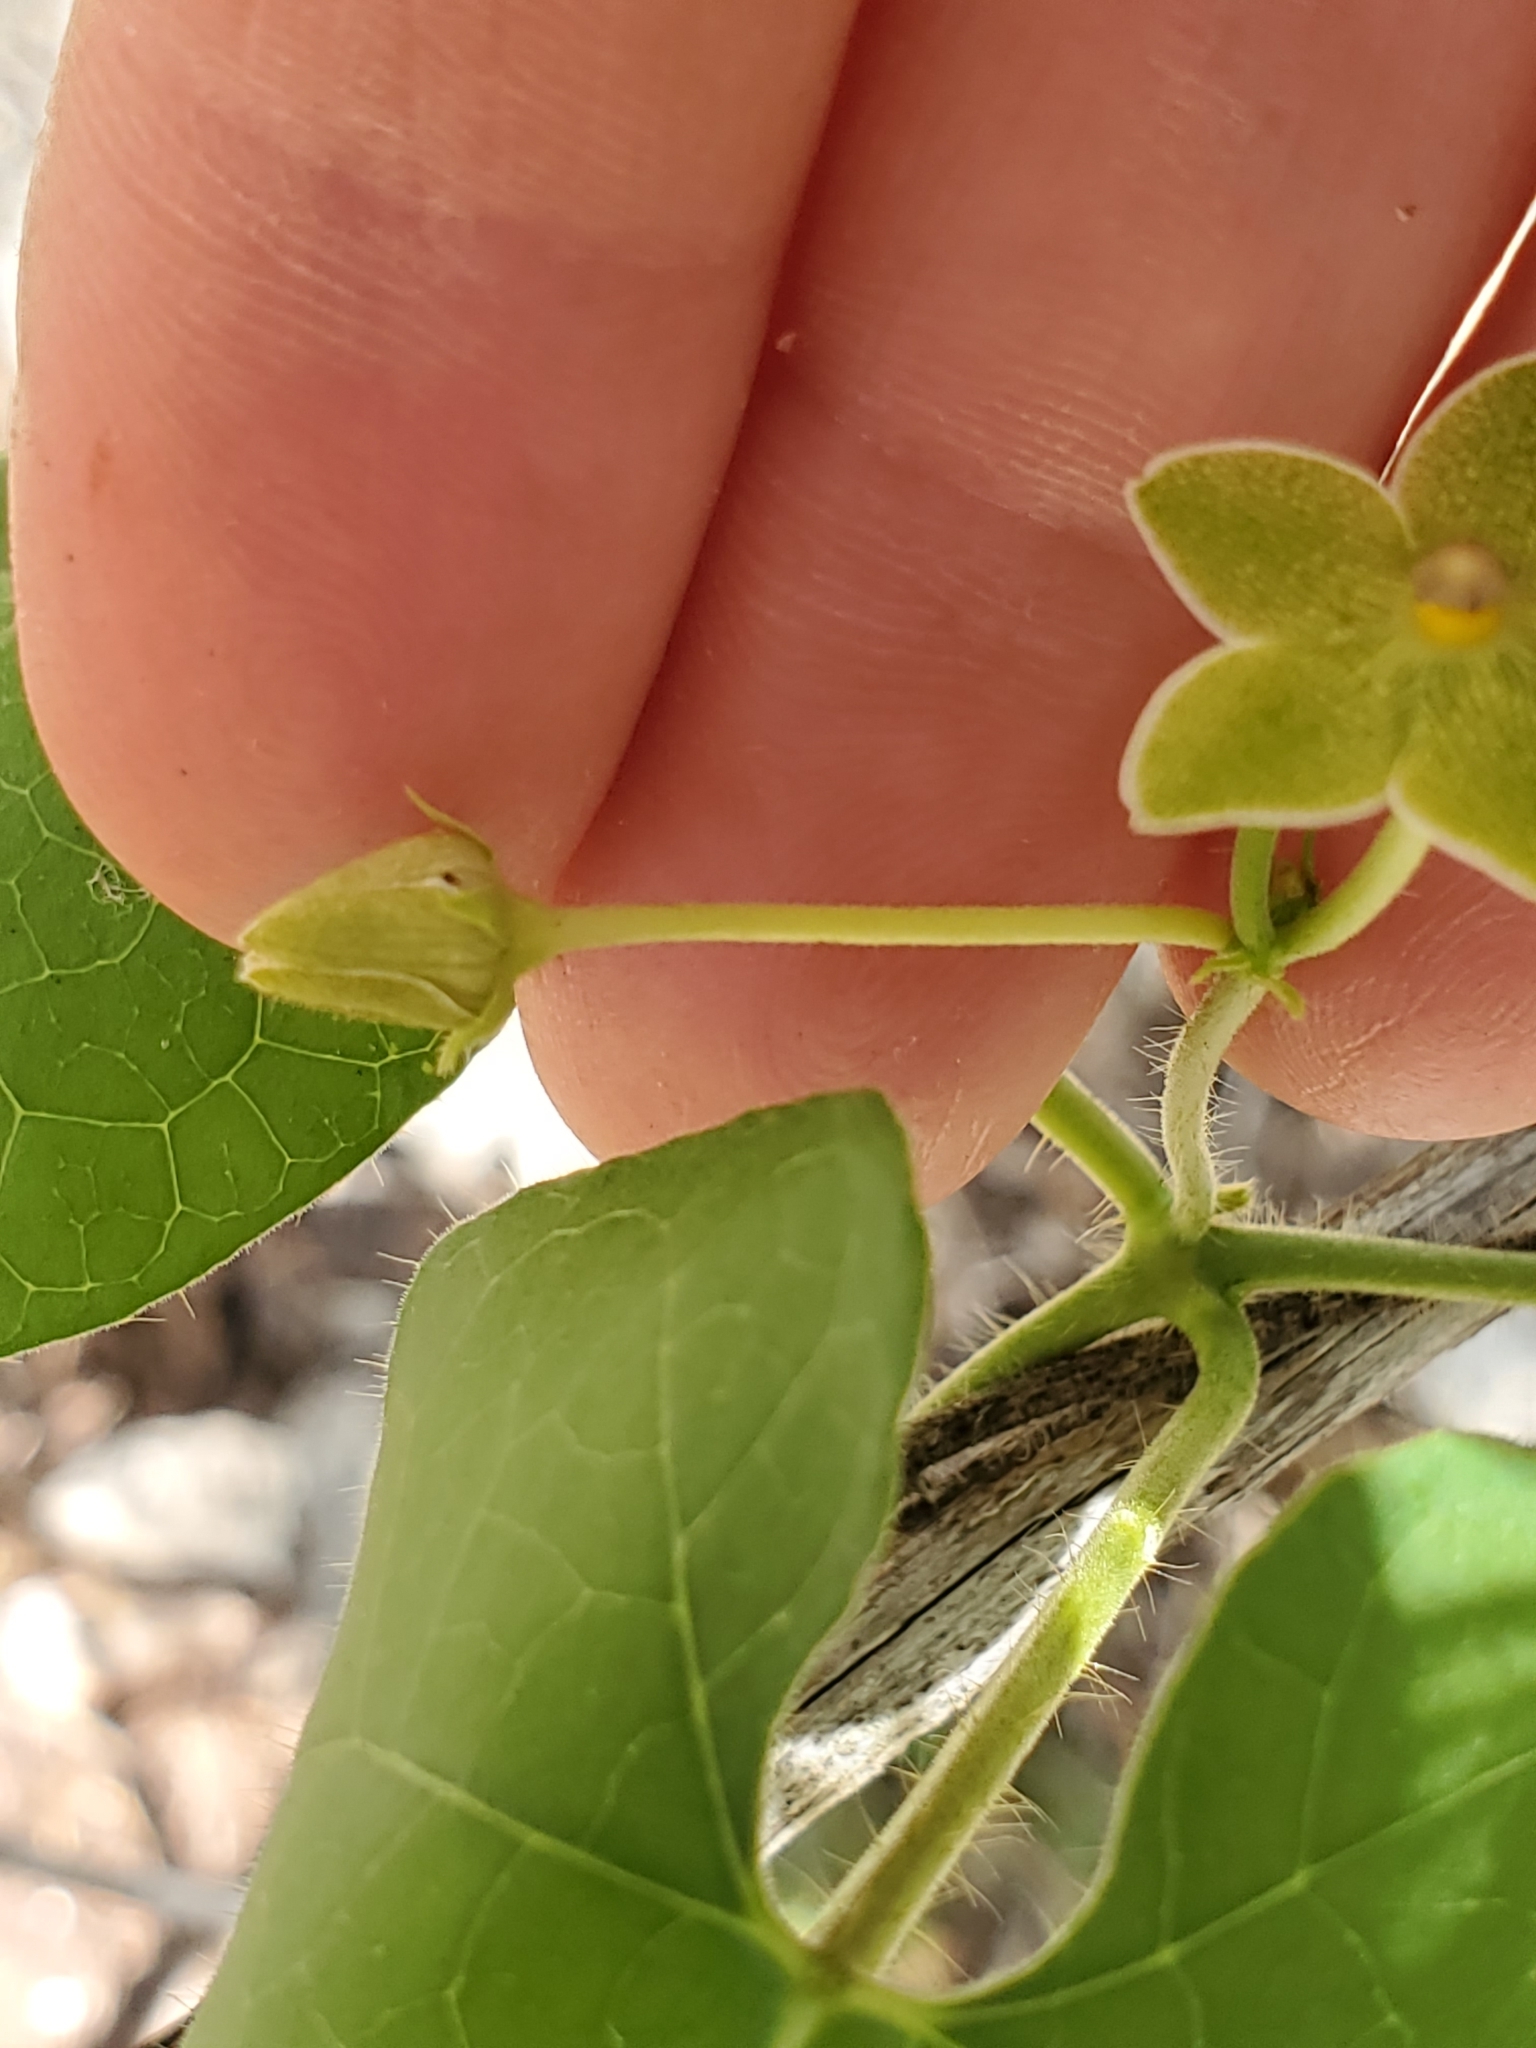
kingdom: Plantae
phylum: Tracheophyta
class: Magnoliopsida
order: Gentianales
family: Apocynaceae
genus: Dictyanthus
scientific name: Dictyanthus reticulatus
